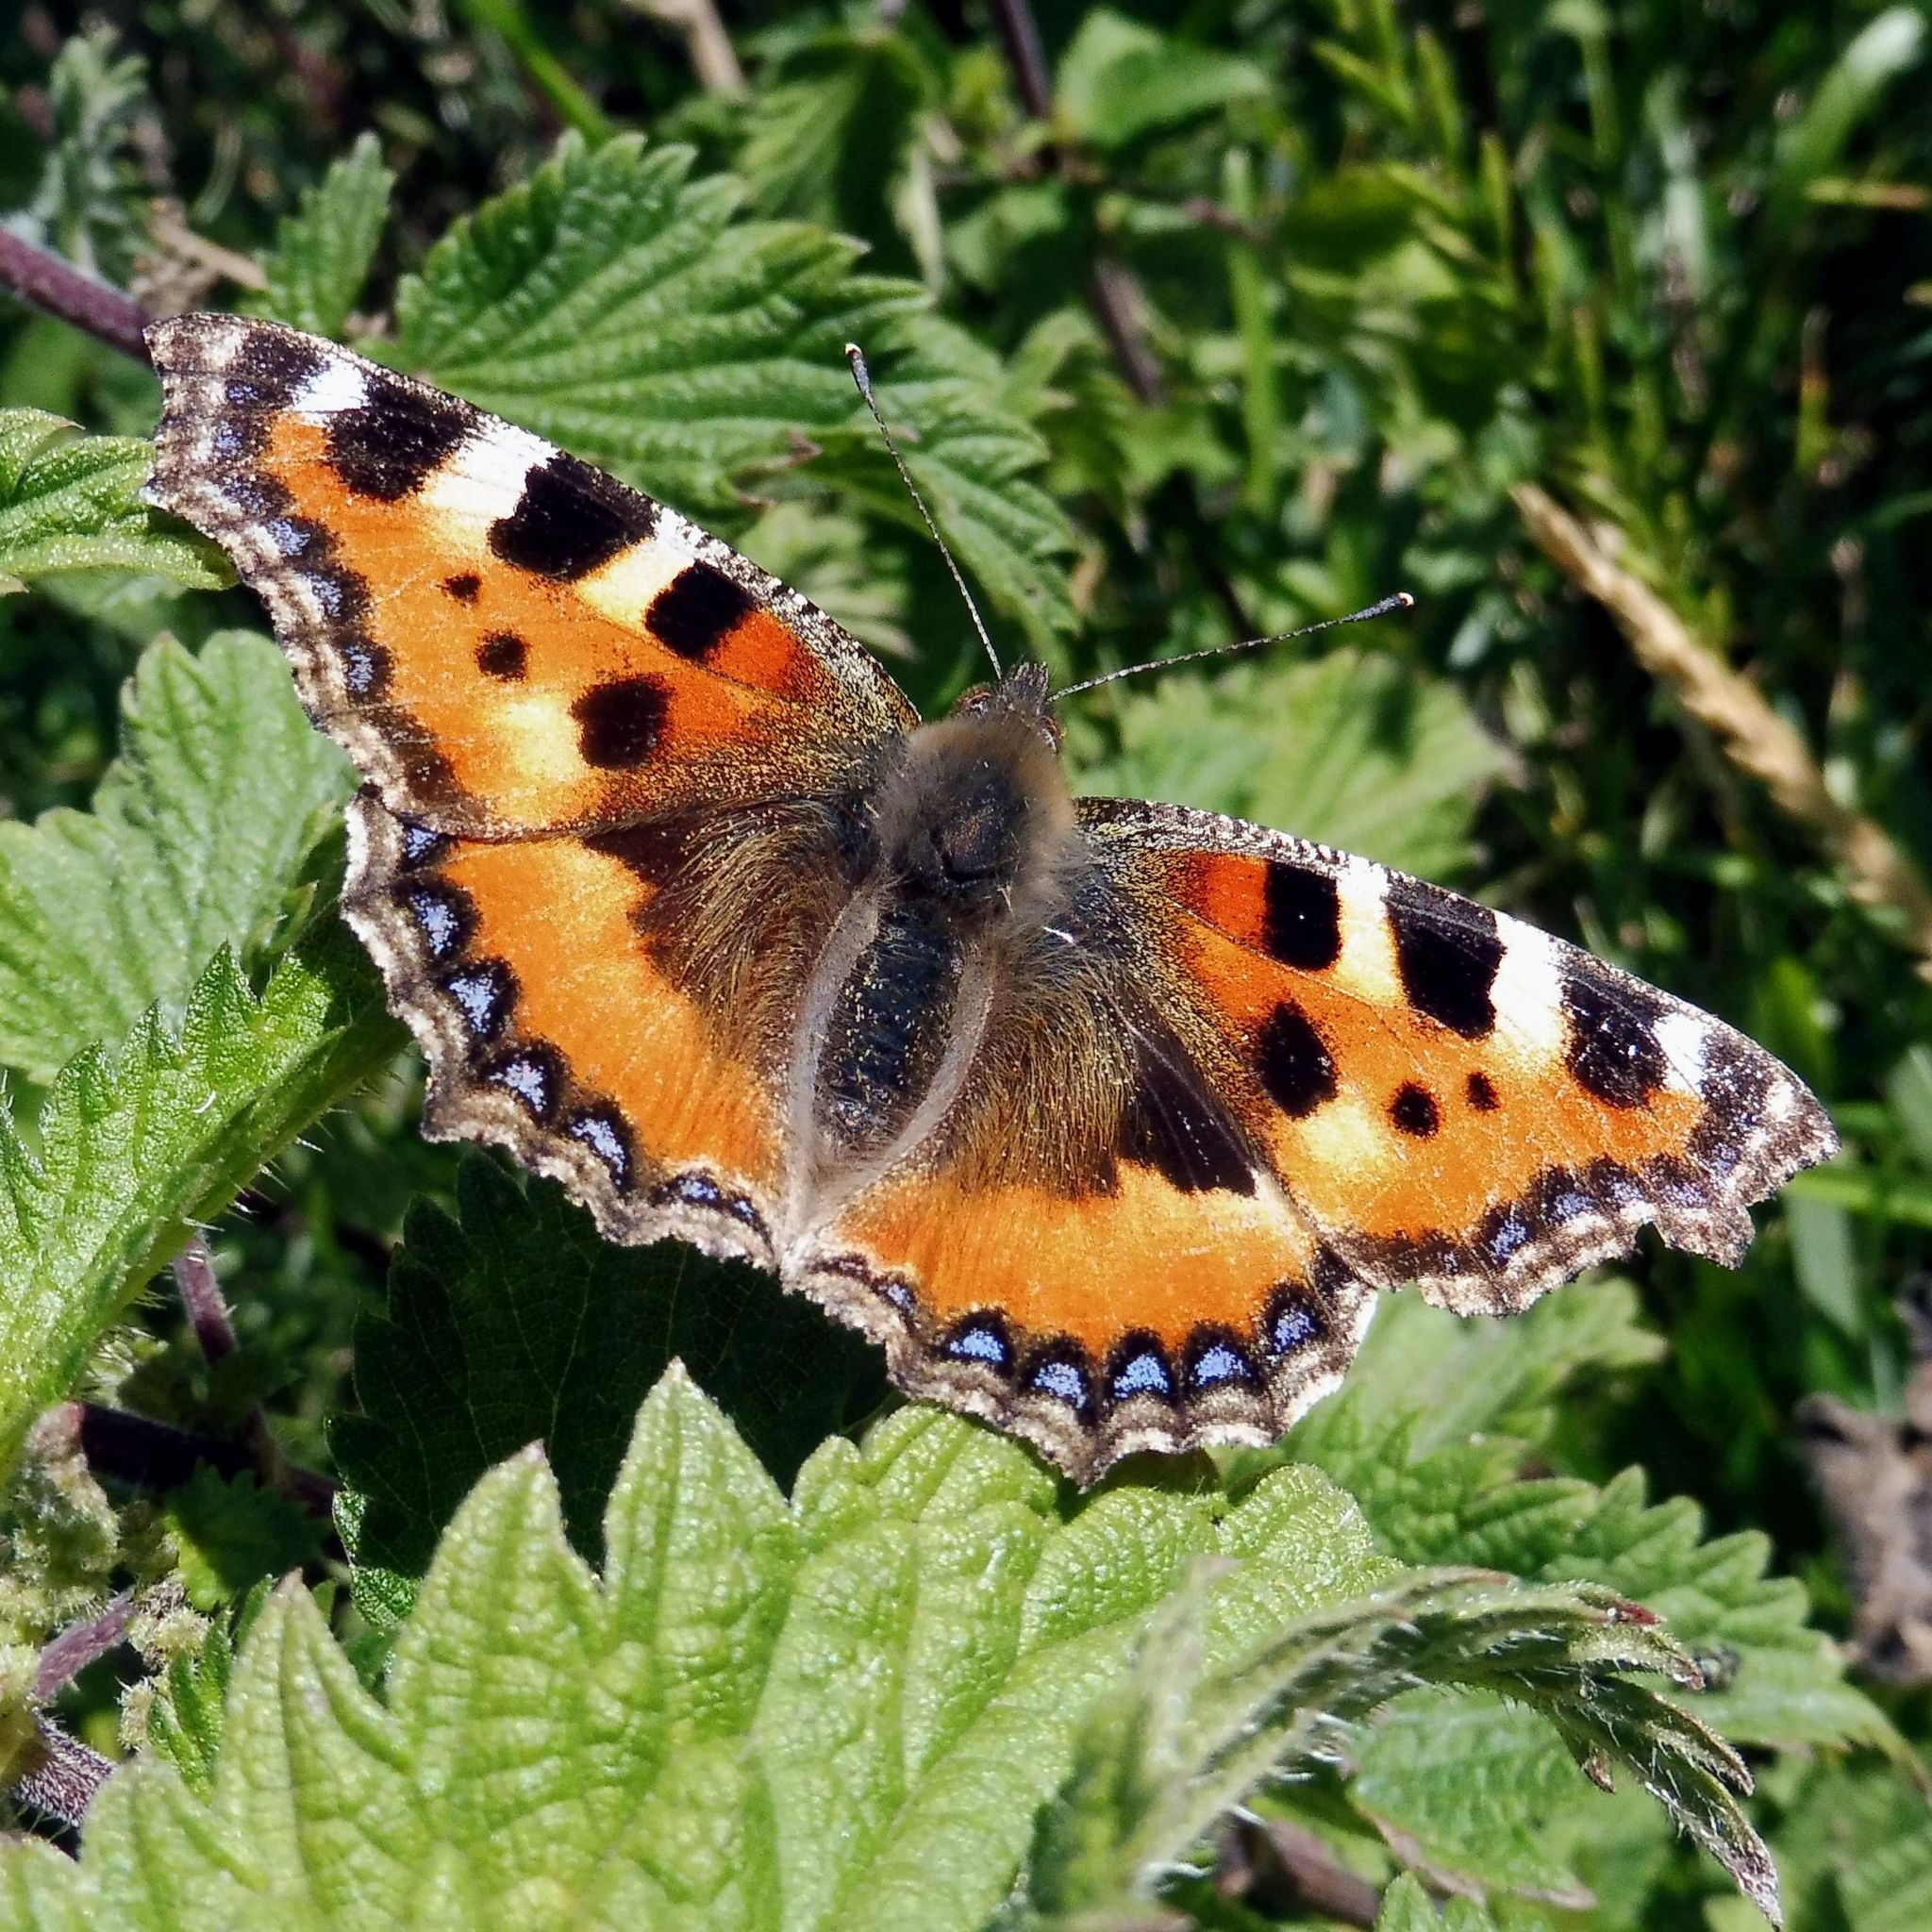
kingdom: Animalia
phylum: Arthropoda
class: Insecta
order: Lepidoptera
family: Nymphalidae
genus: Aglais
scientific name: Aglais urticae
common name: Small tortoiseshell
